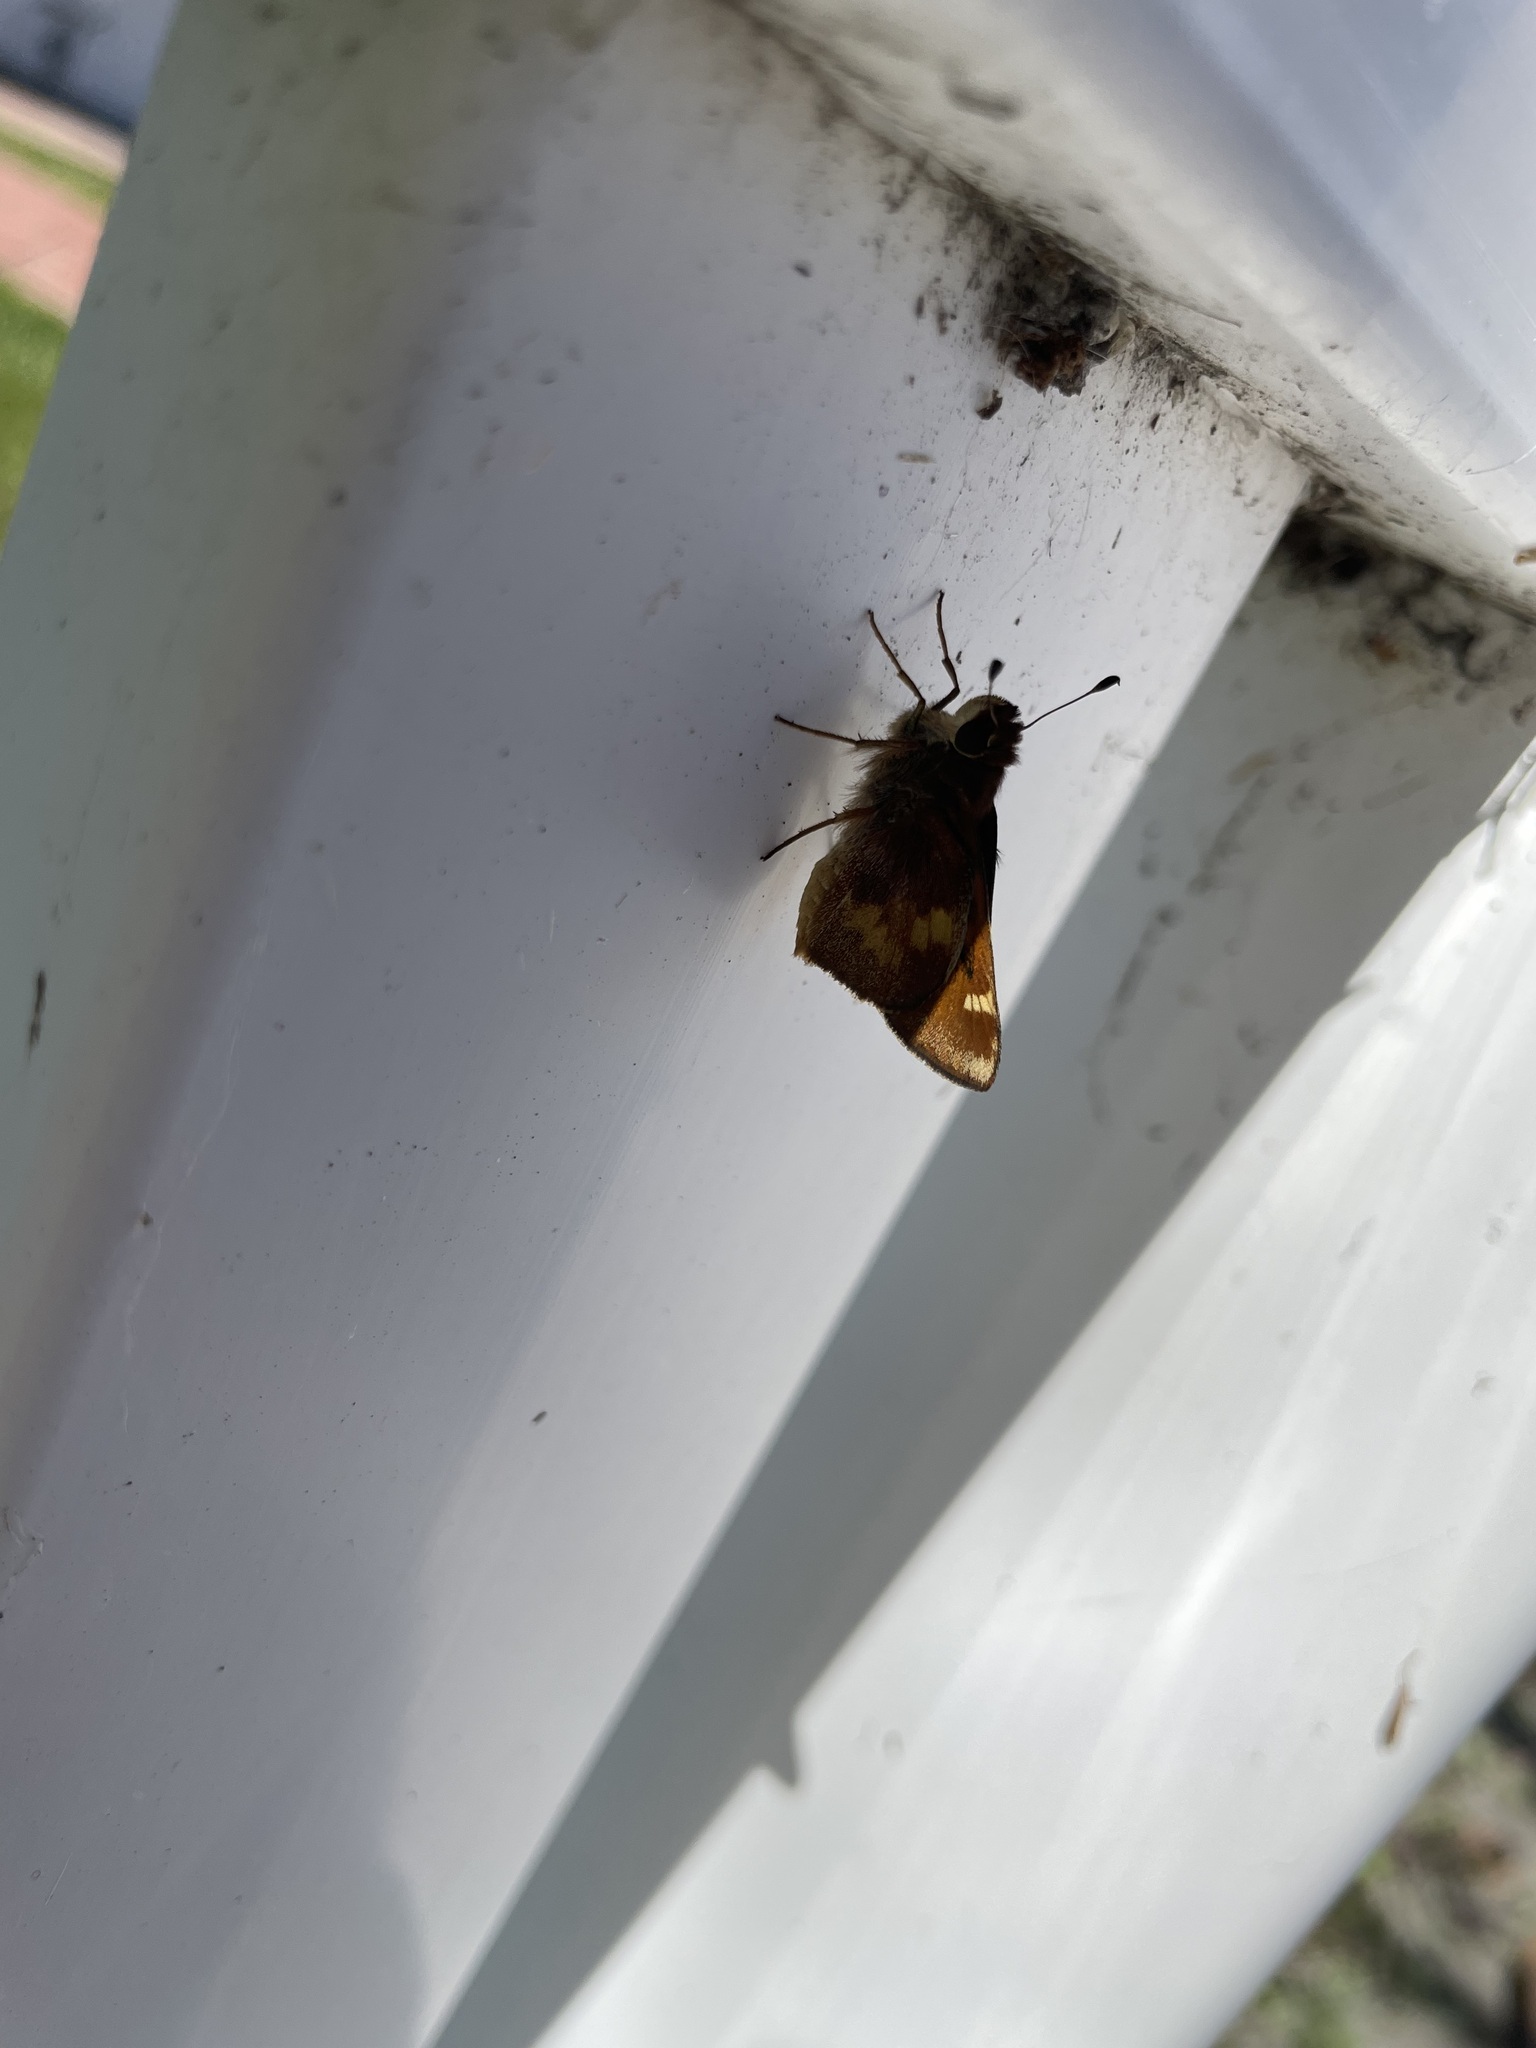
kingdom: Animalia
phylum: Arthropoda
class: Insecta
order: Lepidoptera
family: Hesperiidae
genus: Lon
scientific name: Lon melane
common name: Umber skipper
